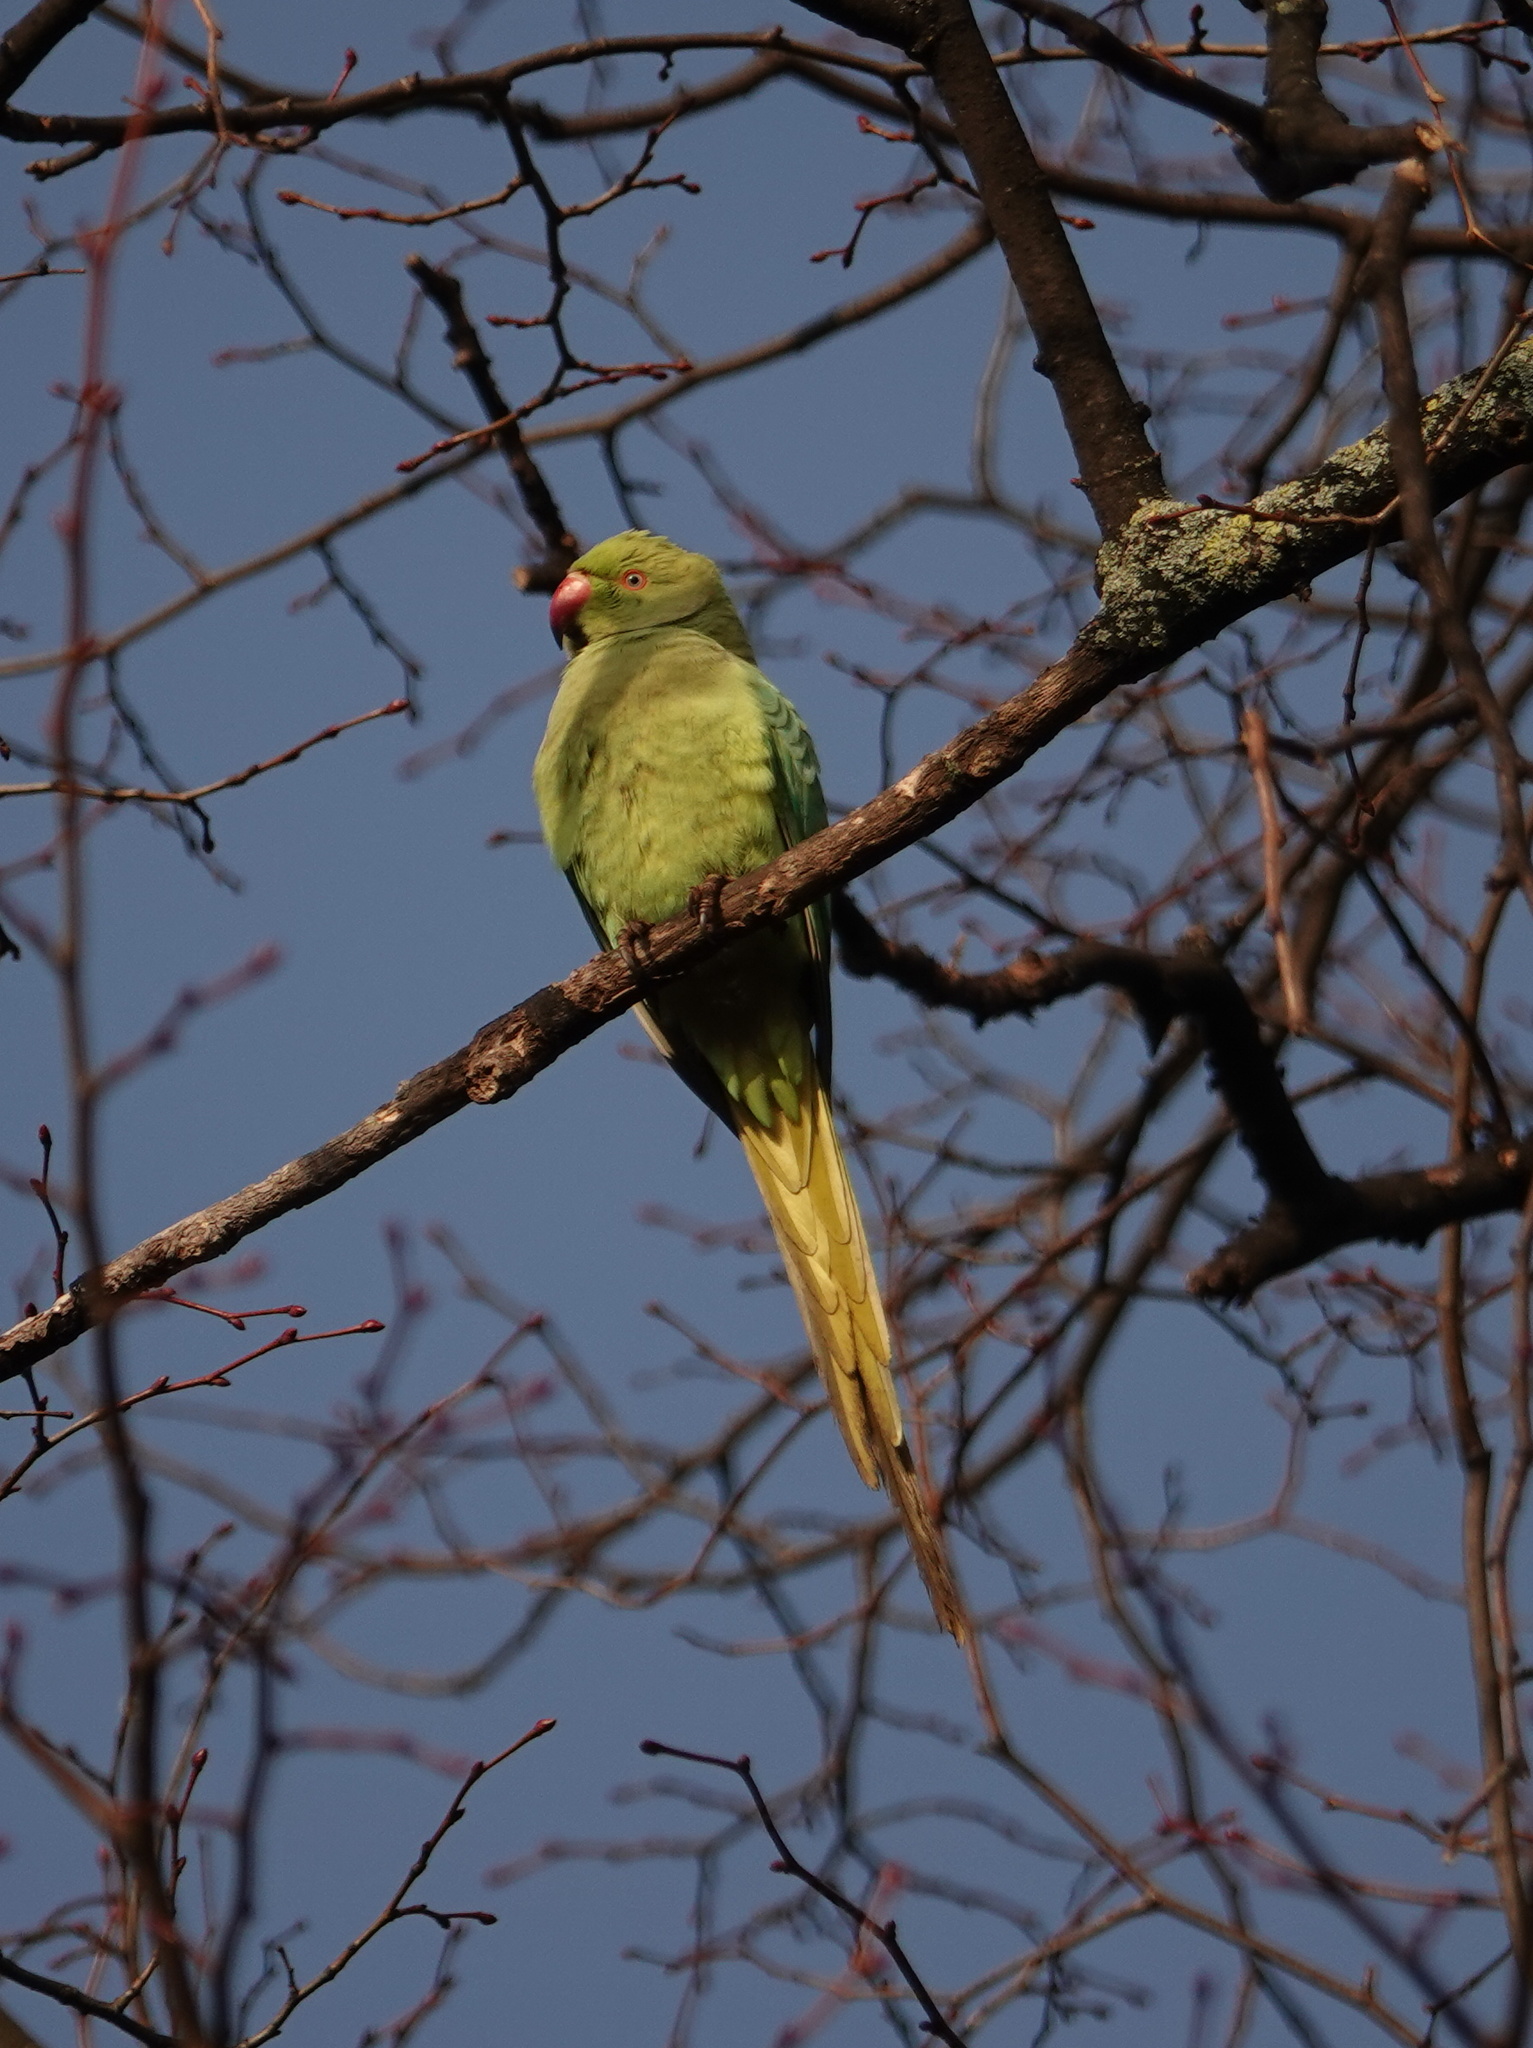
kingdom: Animalia
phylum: Chordata
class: Aves
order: Psittaciformes
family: Psittacidae
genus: Psittacula
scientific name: Psittacula krameri
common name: Rose-ringed parakeet
